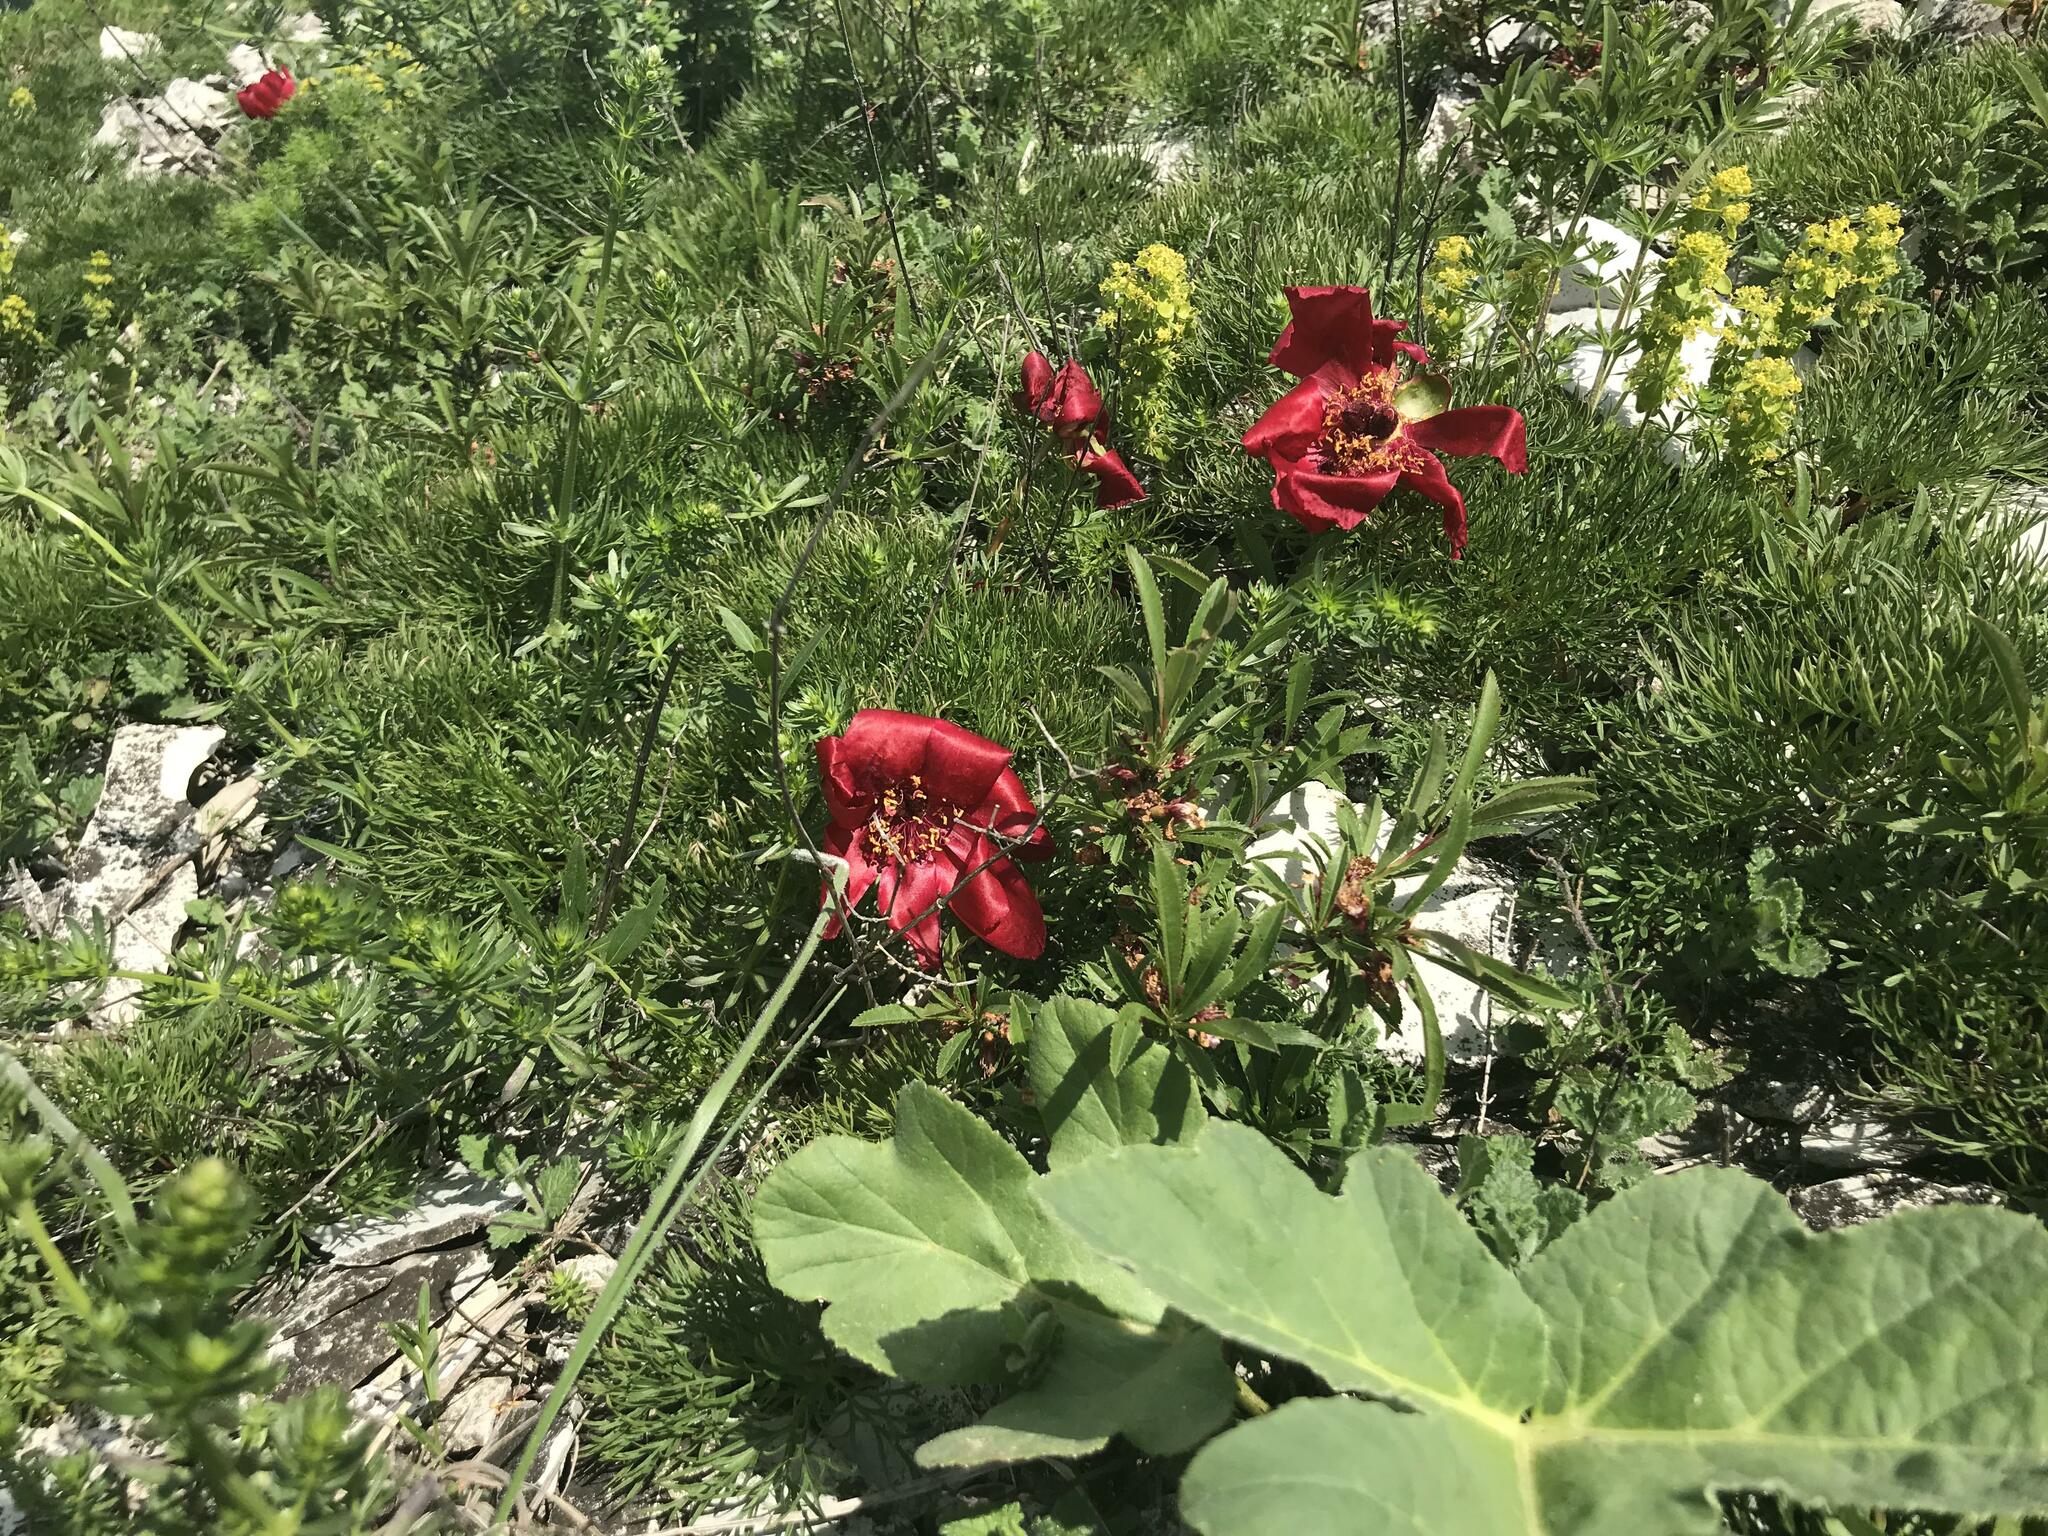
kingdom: Plantae
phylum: Tracheophyta
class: Magnoliopsida
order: Saxifragales
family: Paeoniaceae
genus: Paeonia
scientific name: Paeonia tenuifolia
